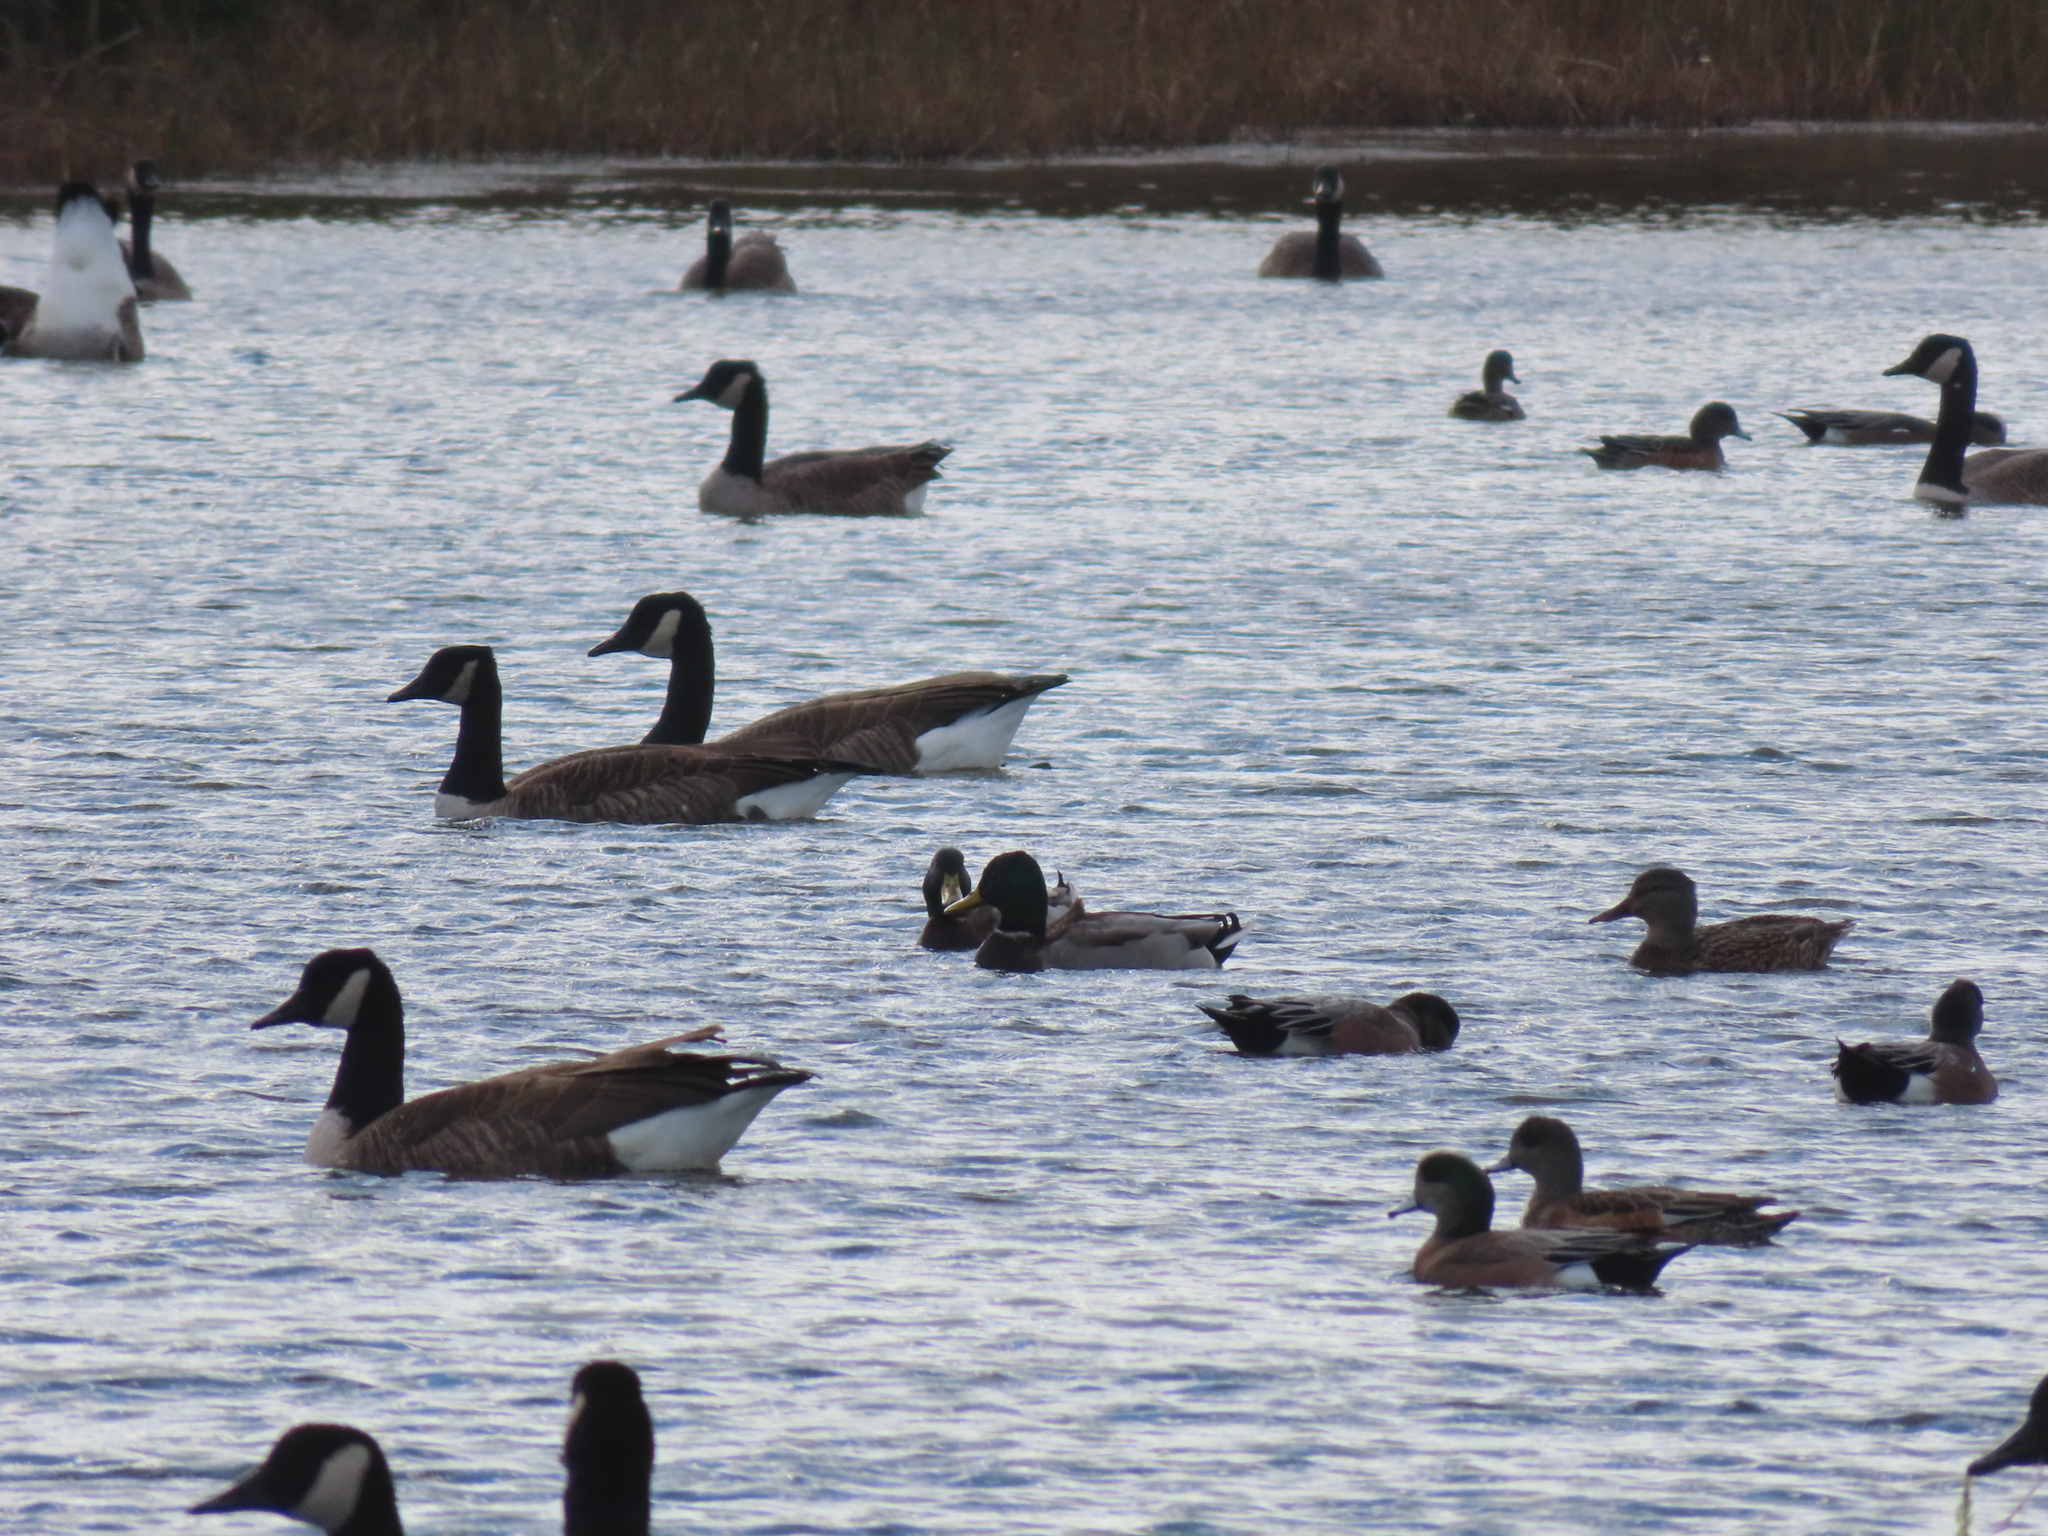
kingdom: Animalia
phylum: Chordata
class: Aves
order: Anseriformes
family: Anatidae
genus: Branta
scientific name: Branta canadensis
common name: Canada goose
